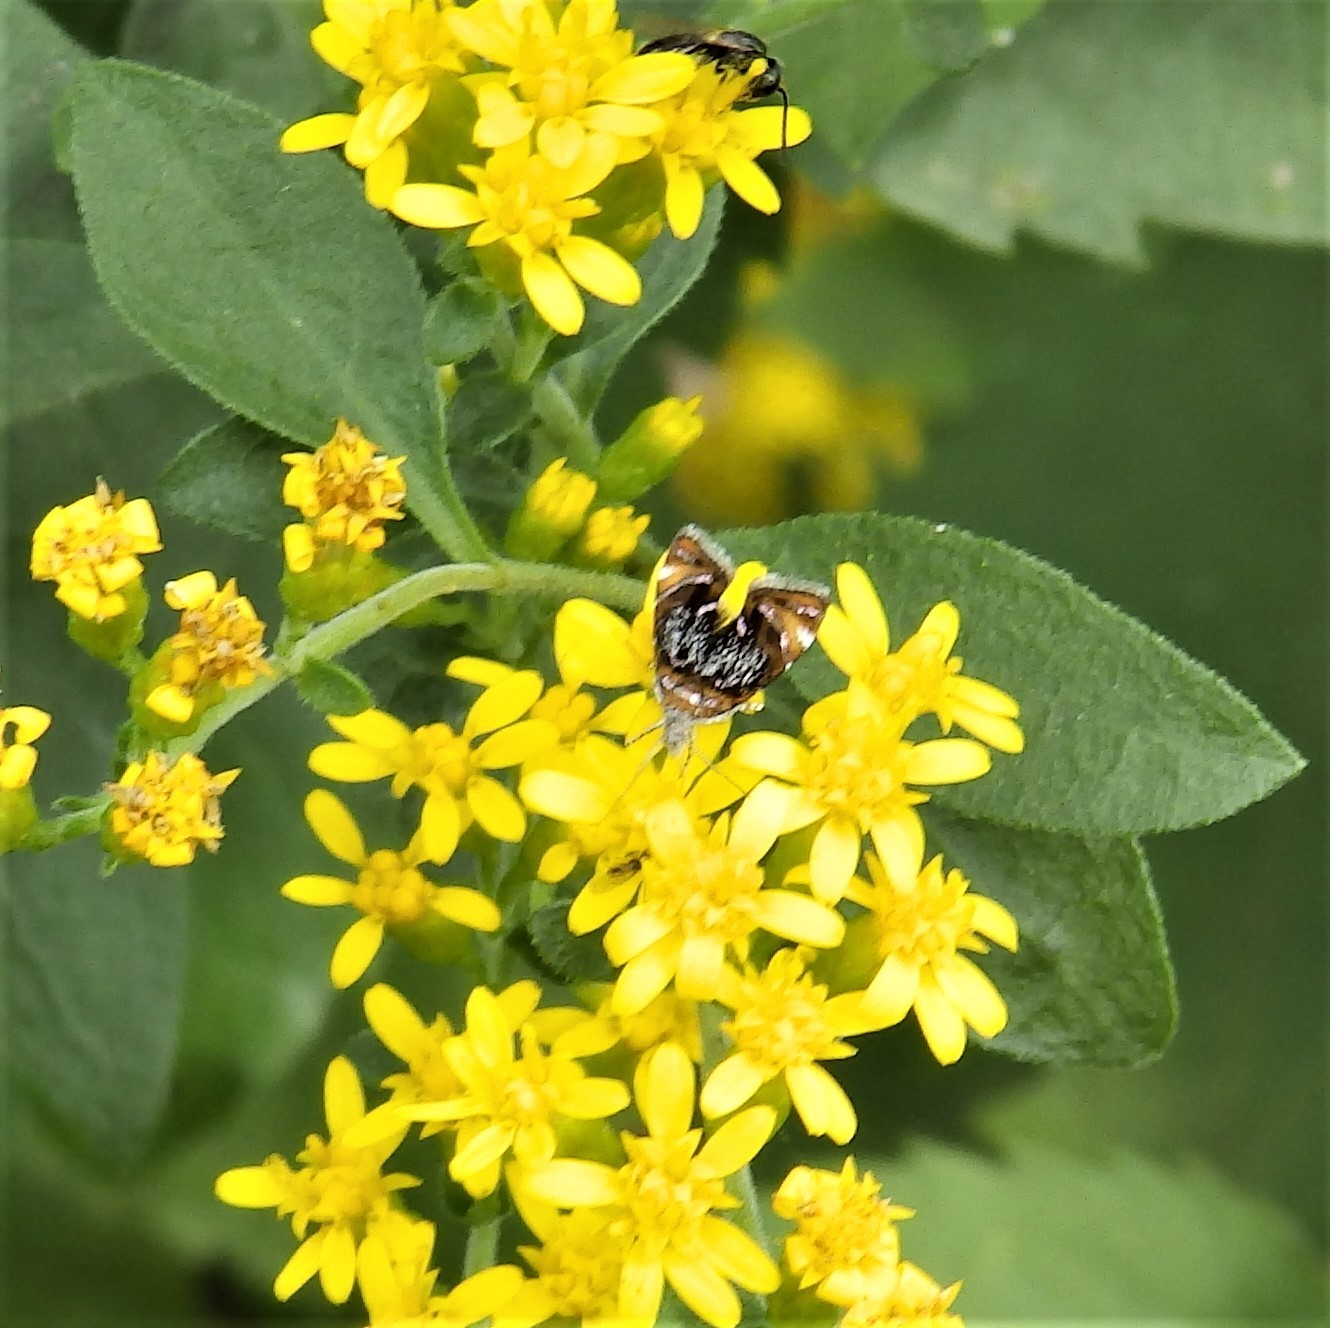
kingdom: Animalia
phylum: Arthropoda
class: Insecta
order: Lepidoptera
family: Choreutidae
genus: Prochoreutis
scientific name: Prochoreutis inflatella
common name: Skullcap skeletonizer moth
